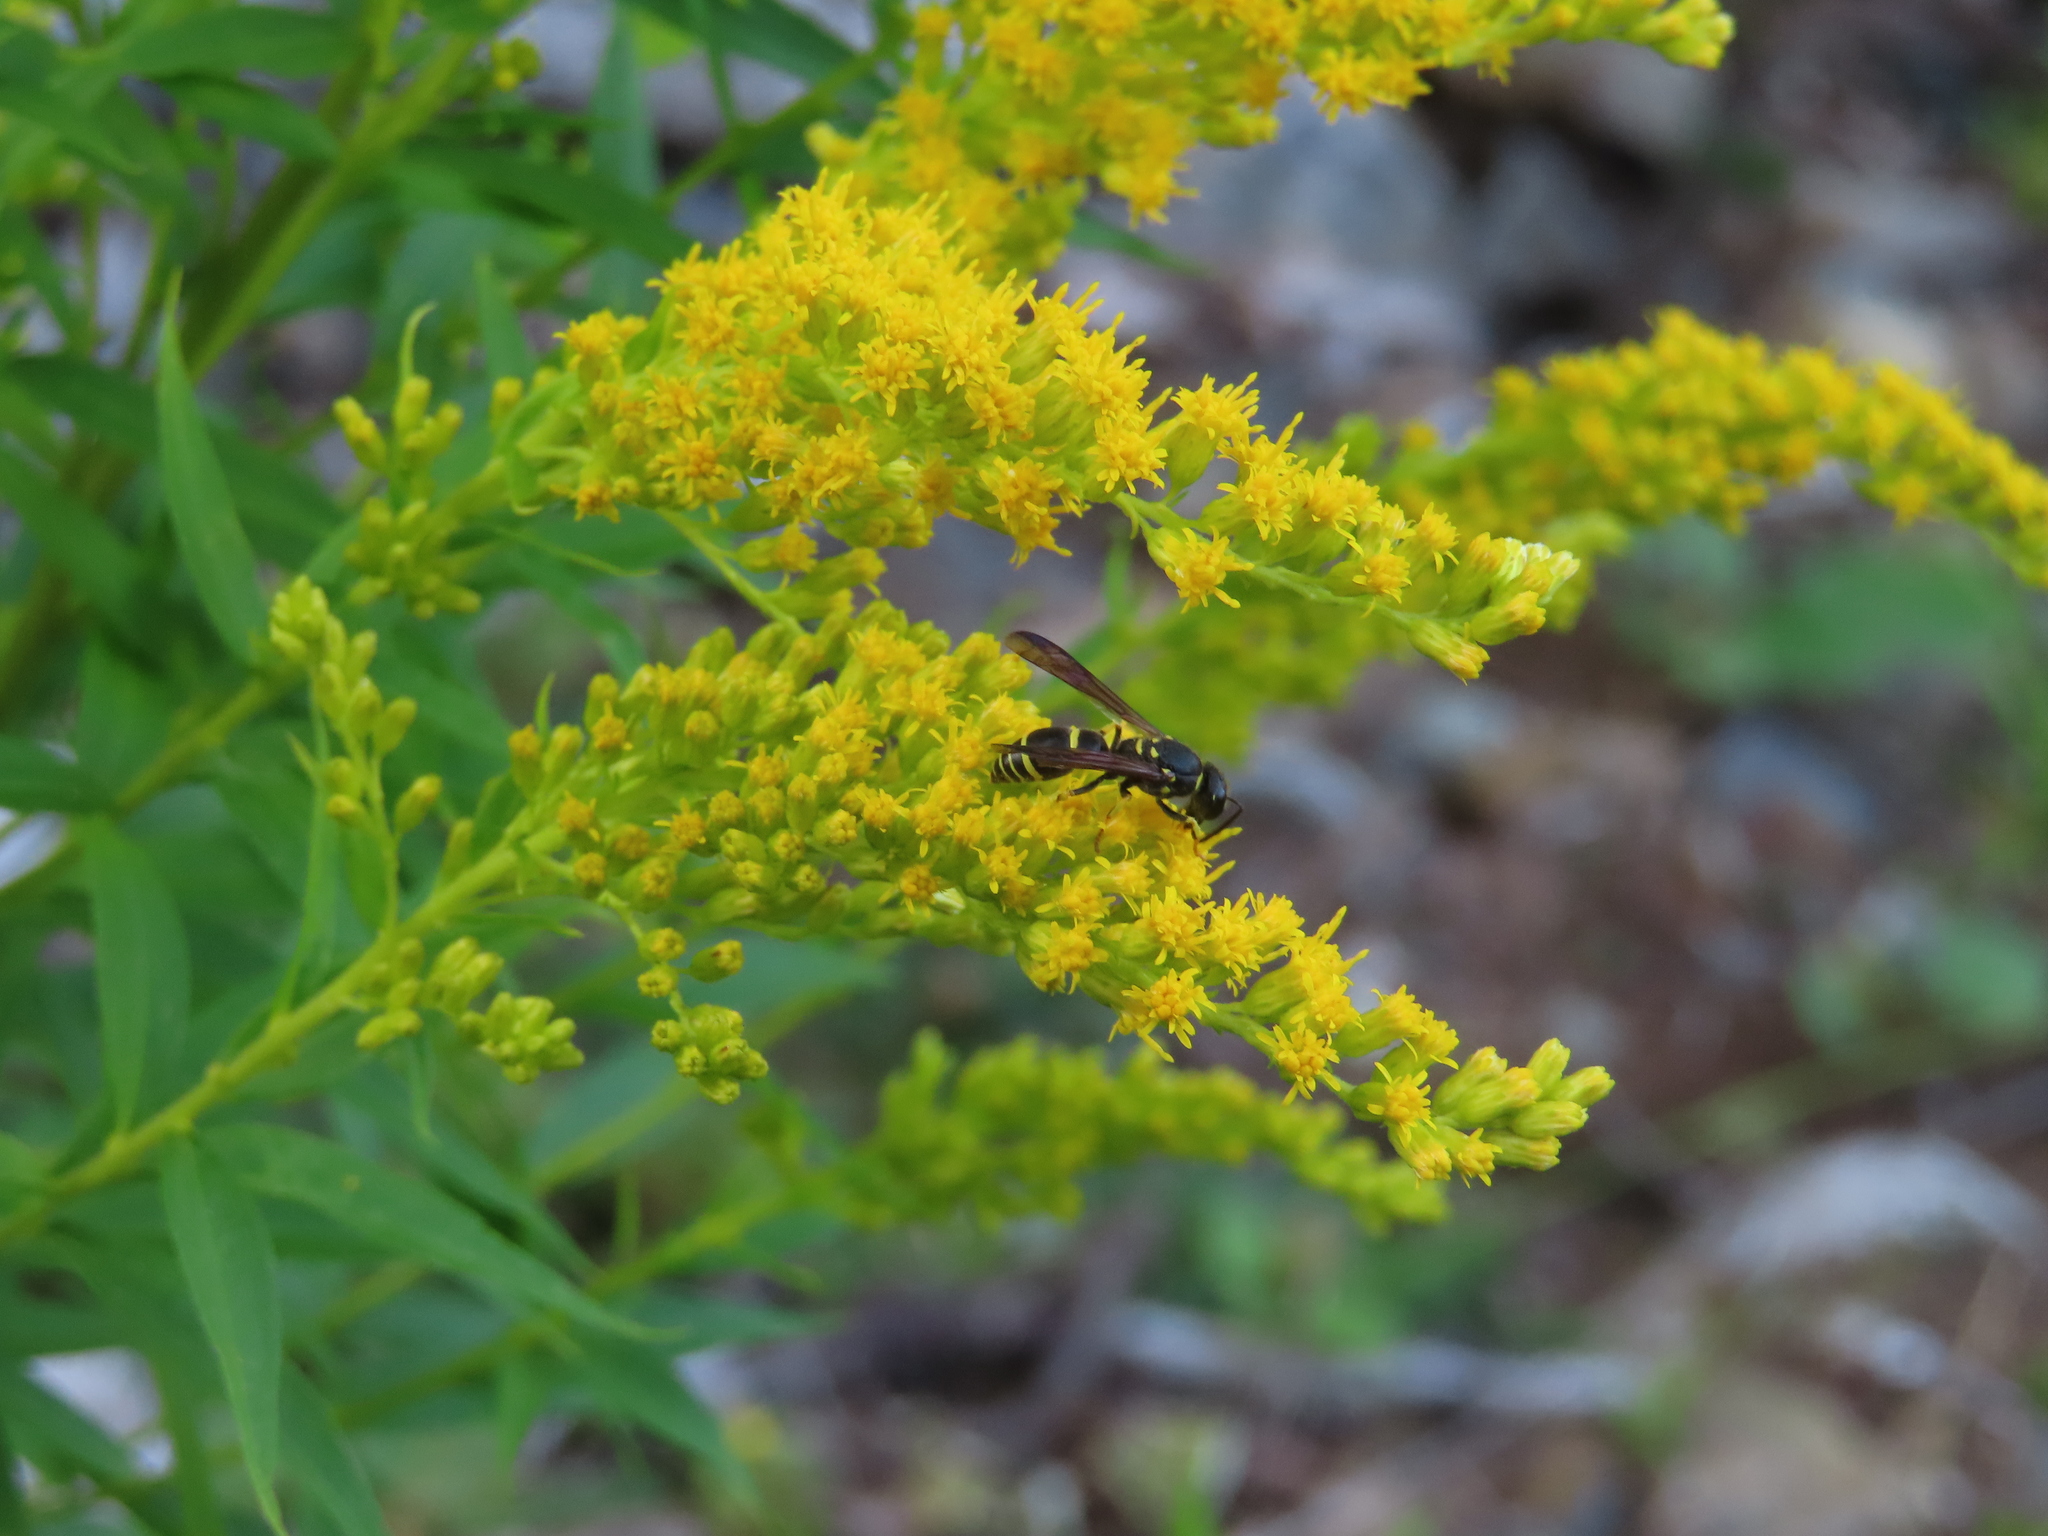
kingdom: Animalia
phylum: Arthropoda
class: Insecta
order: Hymenoptera
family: Vespidae
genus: Ancistrocerus
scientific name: Ancistrocerus adiabatus
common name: Bramble mason wasp
